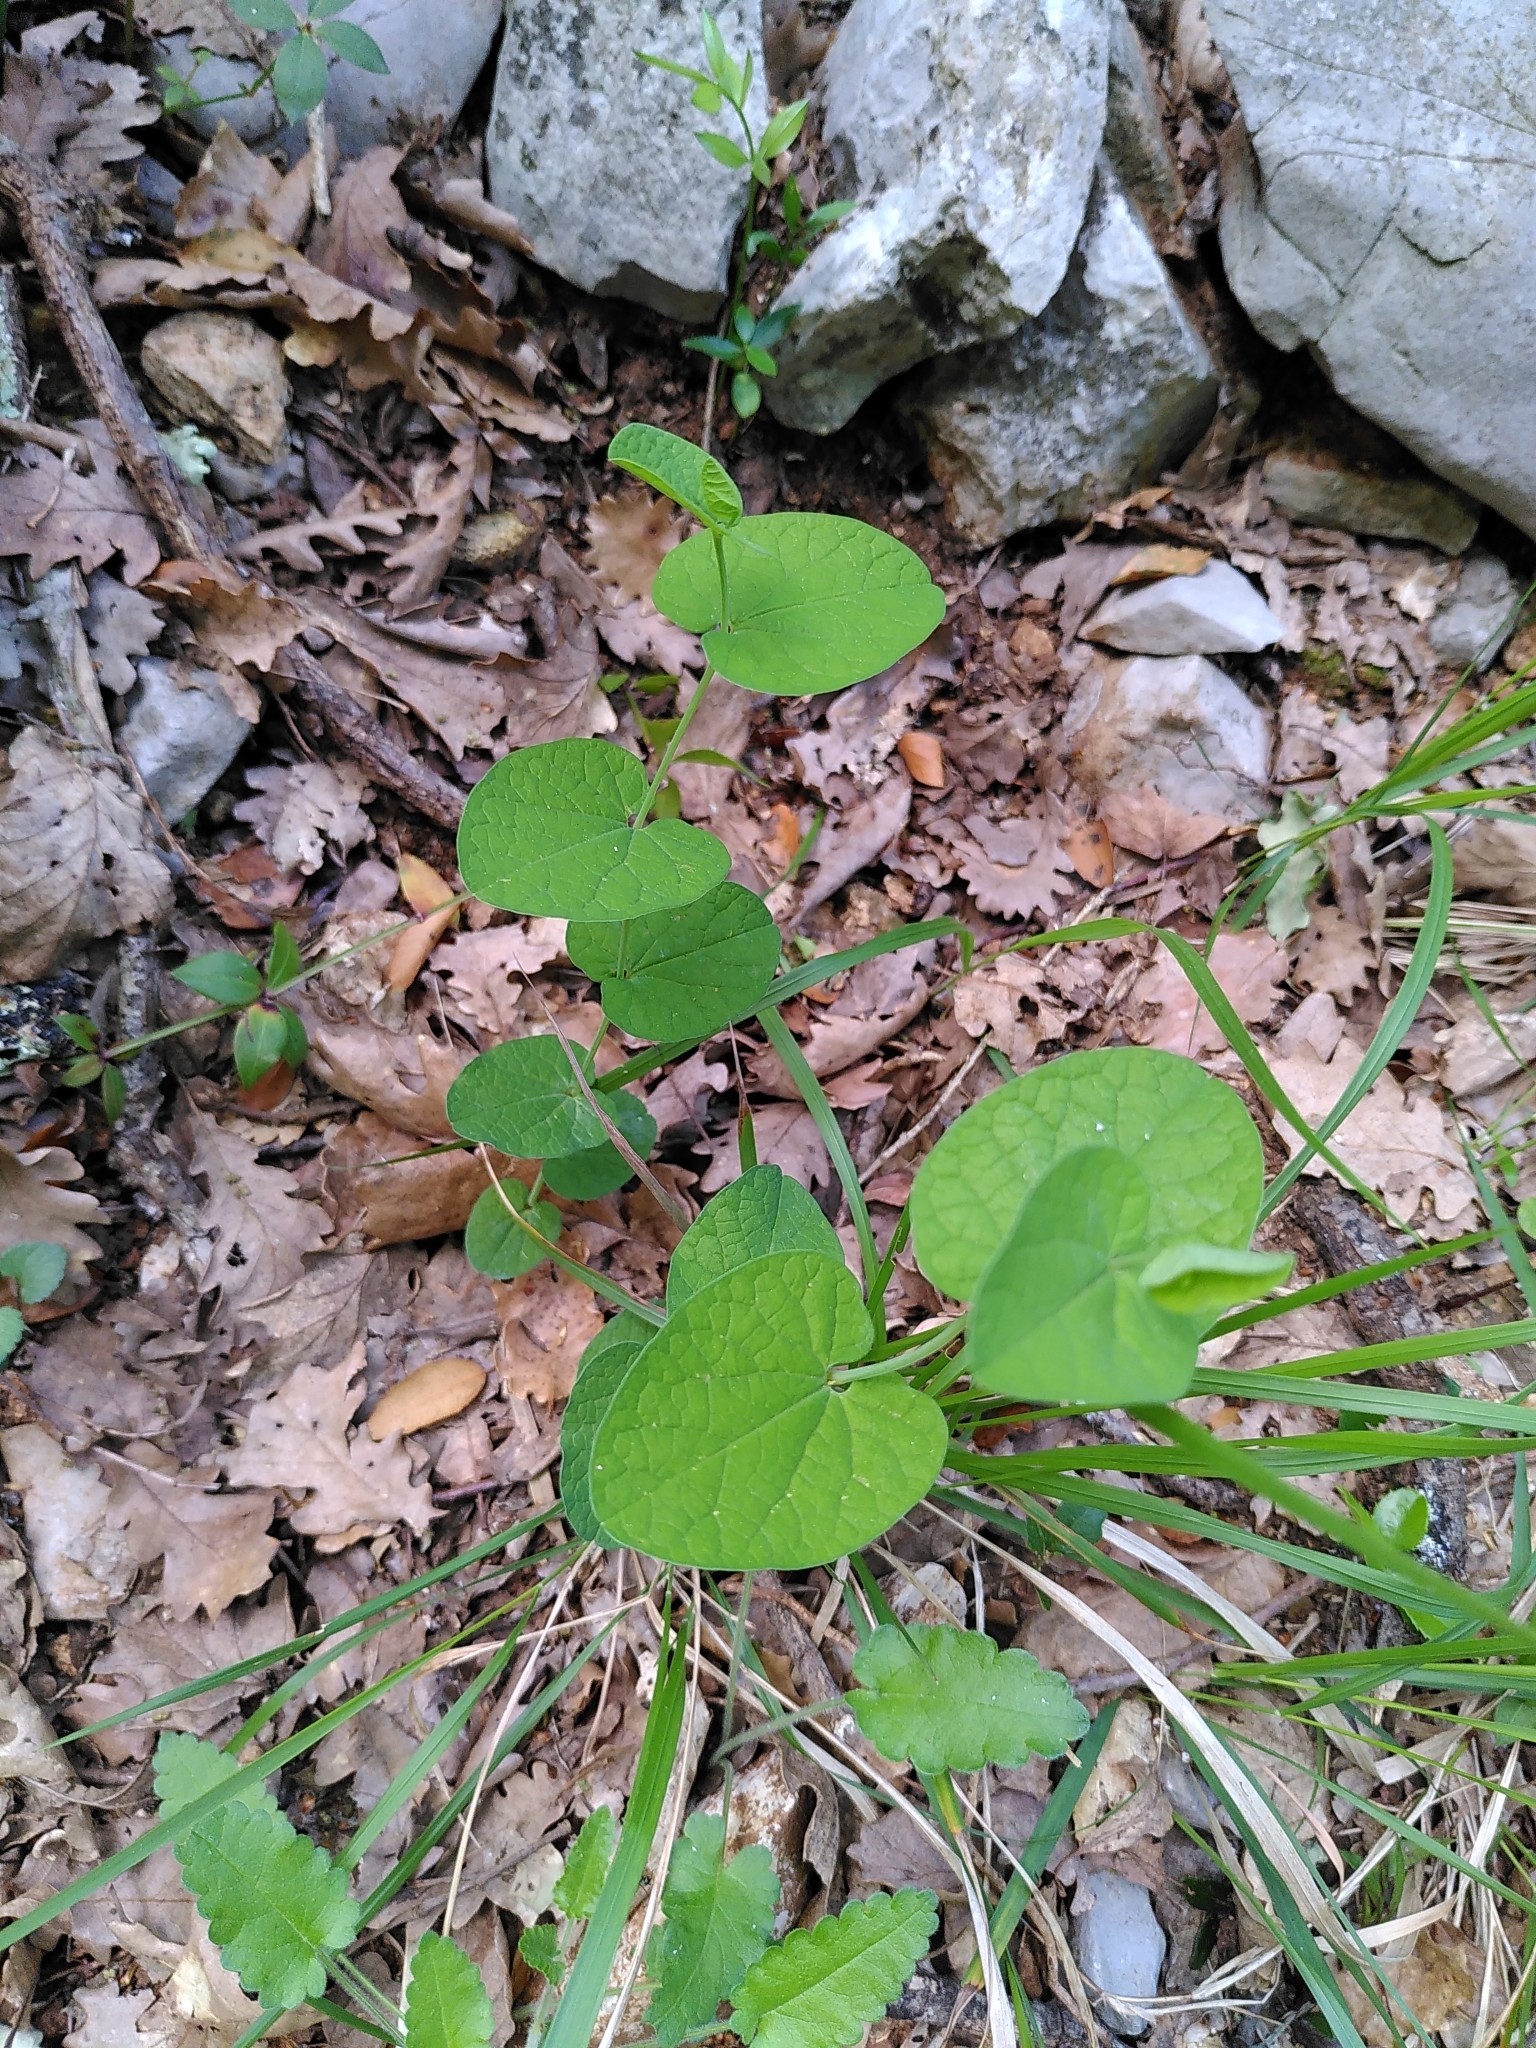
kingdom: Plantae
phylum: Tracheophyta
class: Magnoliopsida
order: Piperales
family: Aristolochiaceae
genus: Aristolochia
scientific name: Aristolochia rotunda
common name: Smearwort
